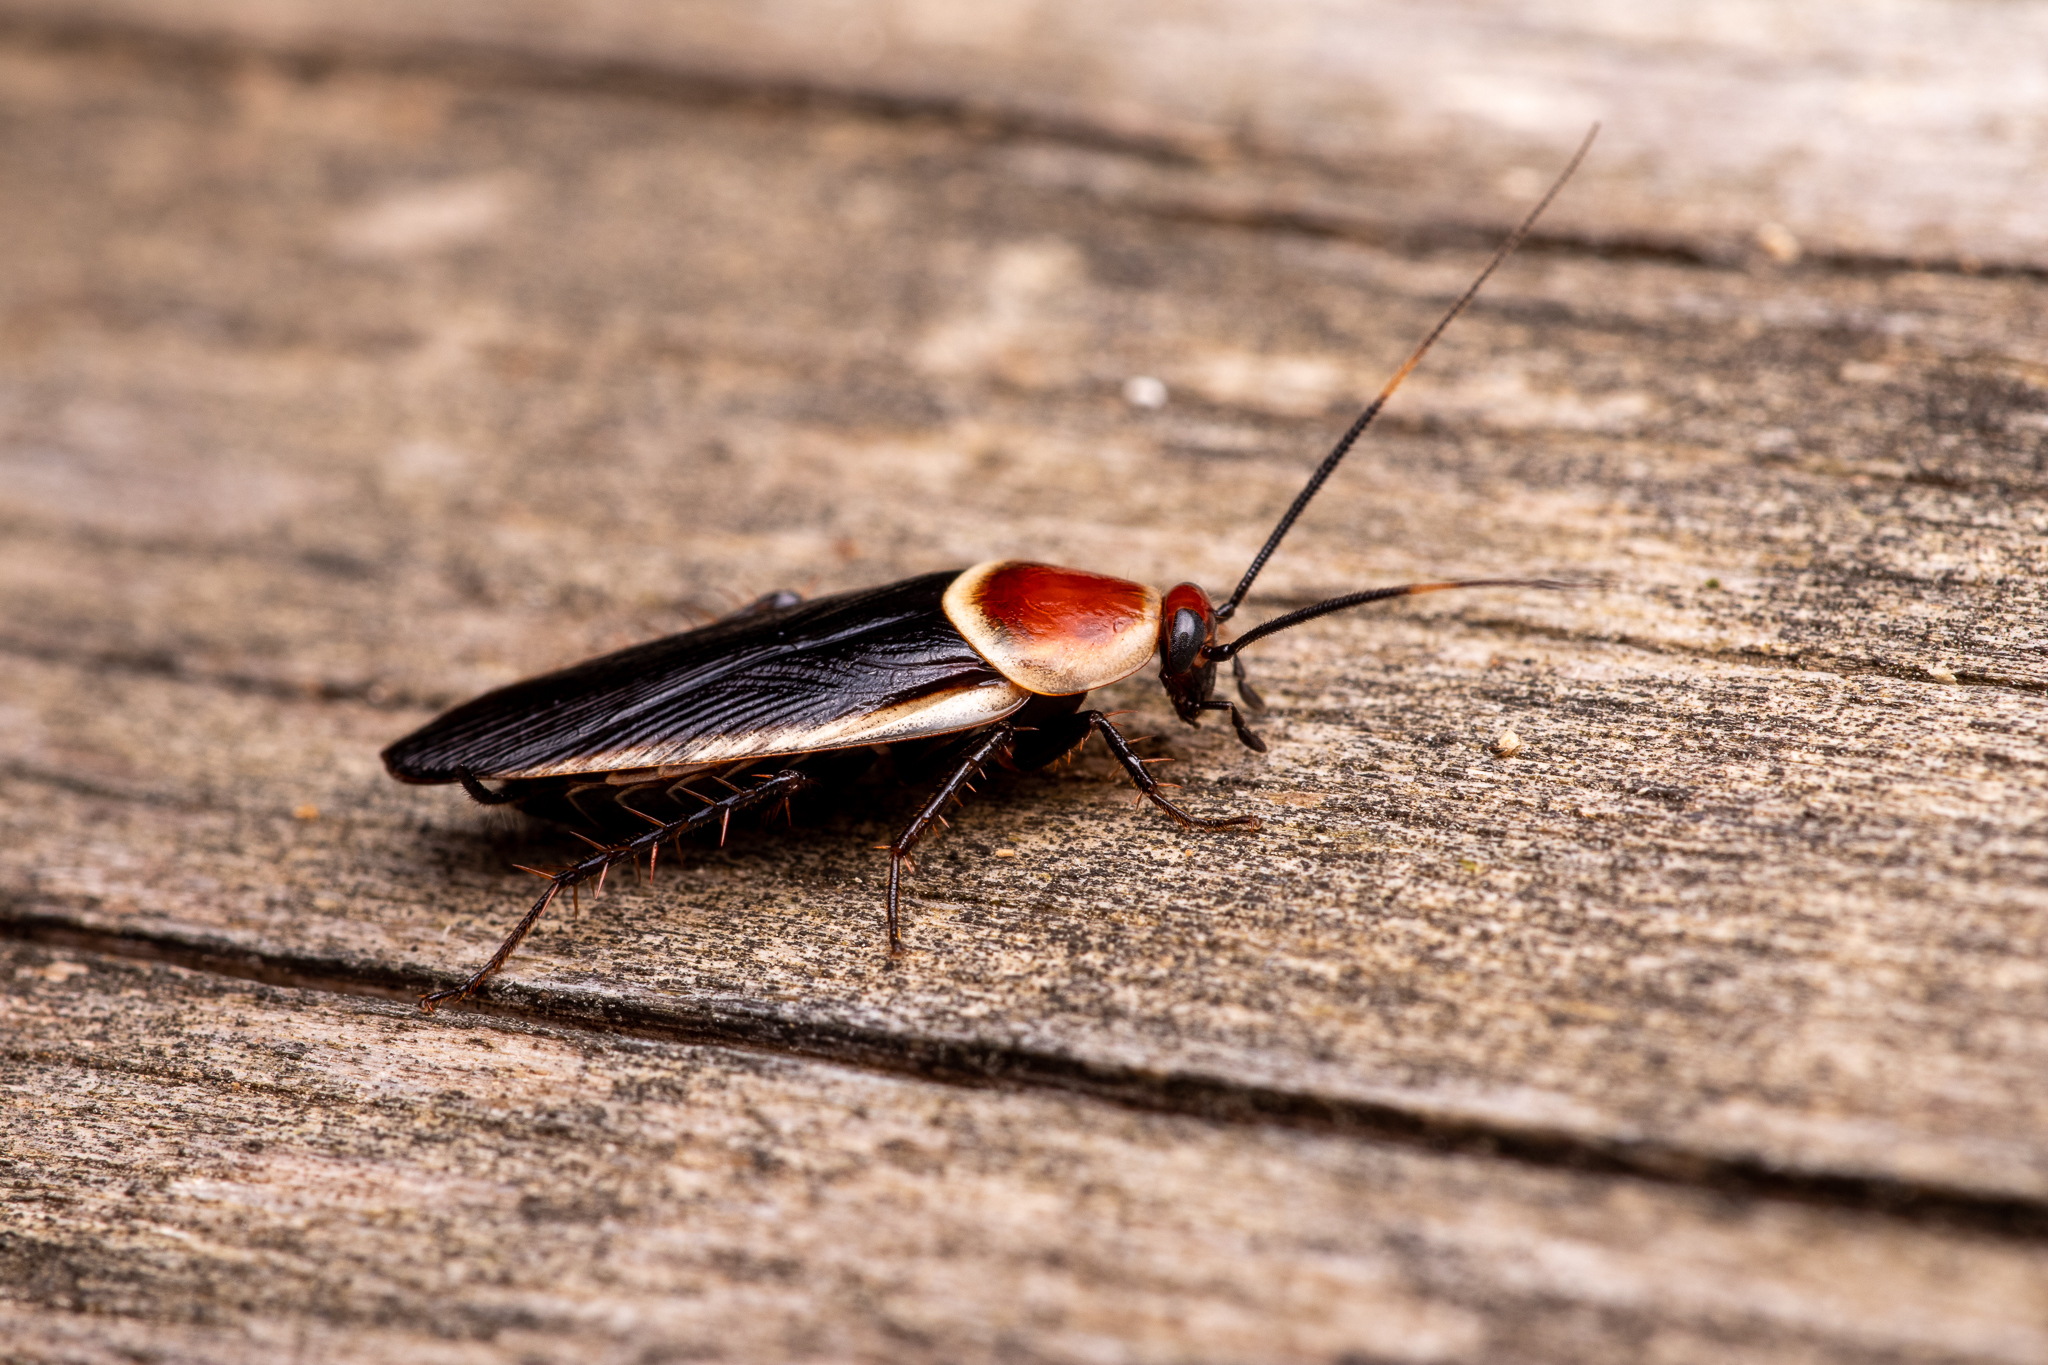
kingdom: Animalia
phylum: Arthropoda
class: Insecta
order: Blattodea
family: Ectobiidae
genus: Pseudomops
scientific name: Pseudomops septentrionalis
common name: Pale-bordered field cockroach
